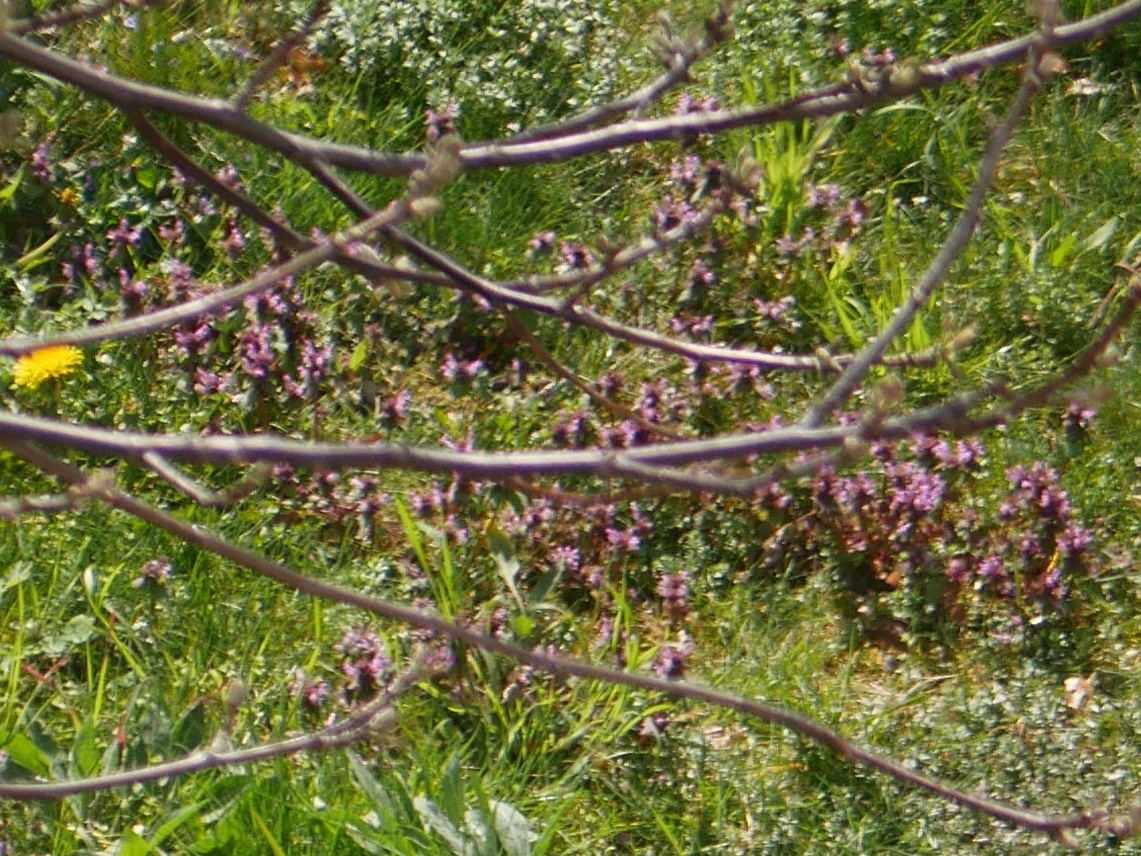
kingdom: Plantae
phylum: Tracheophyta
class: Magnoliopsida
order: Lamiales
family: Lamiaceae
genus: Lamium
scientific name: Lamium purpureum
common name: Red dead-nettle
